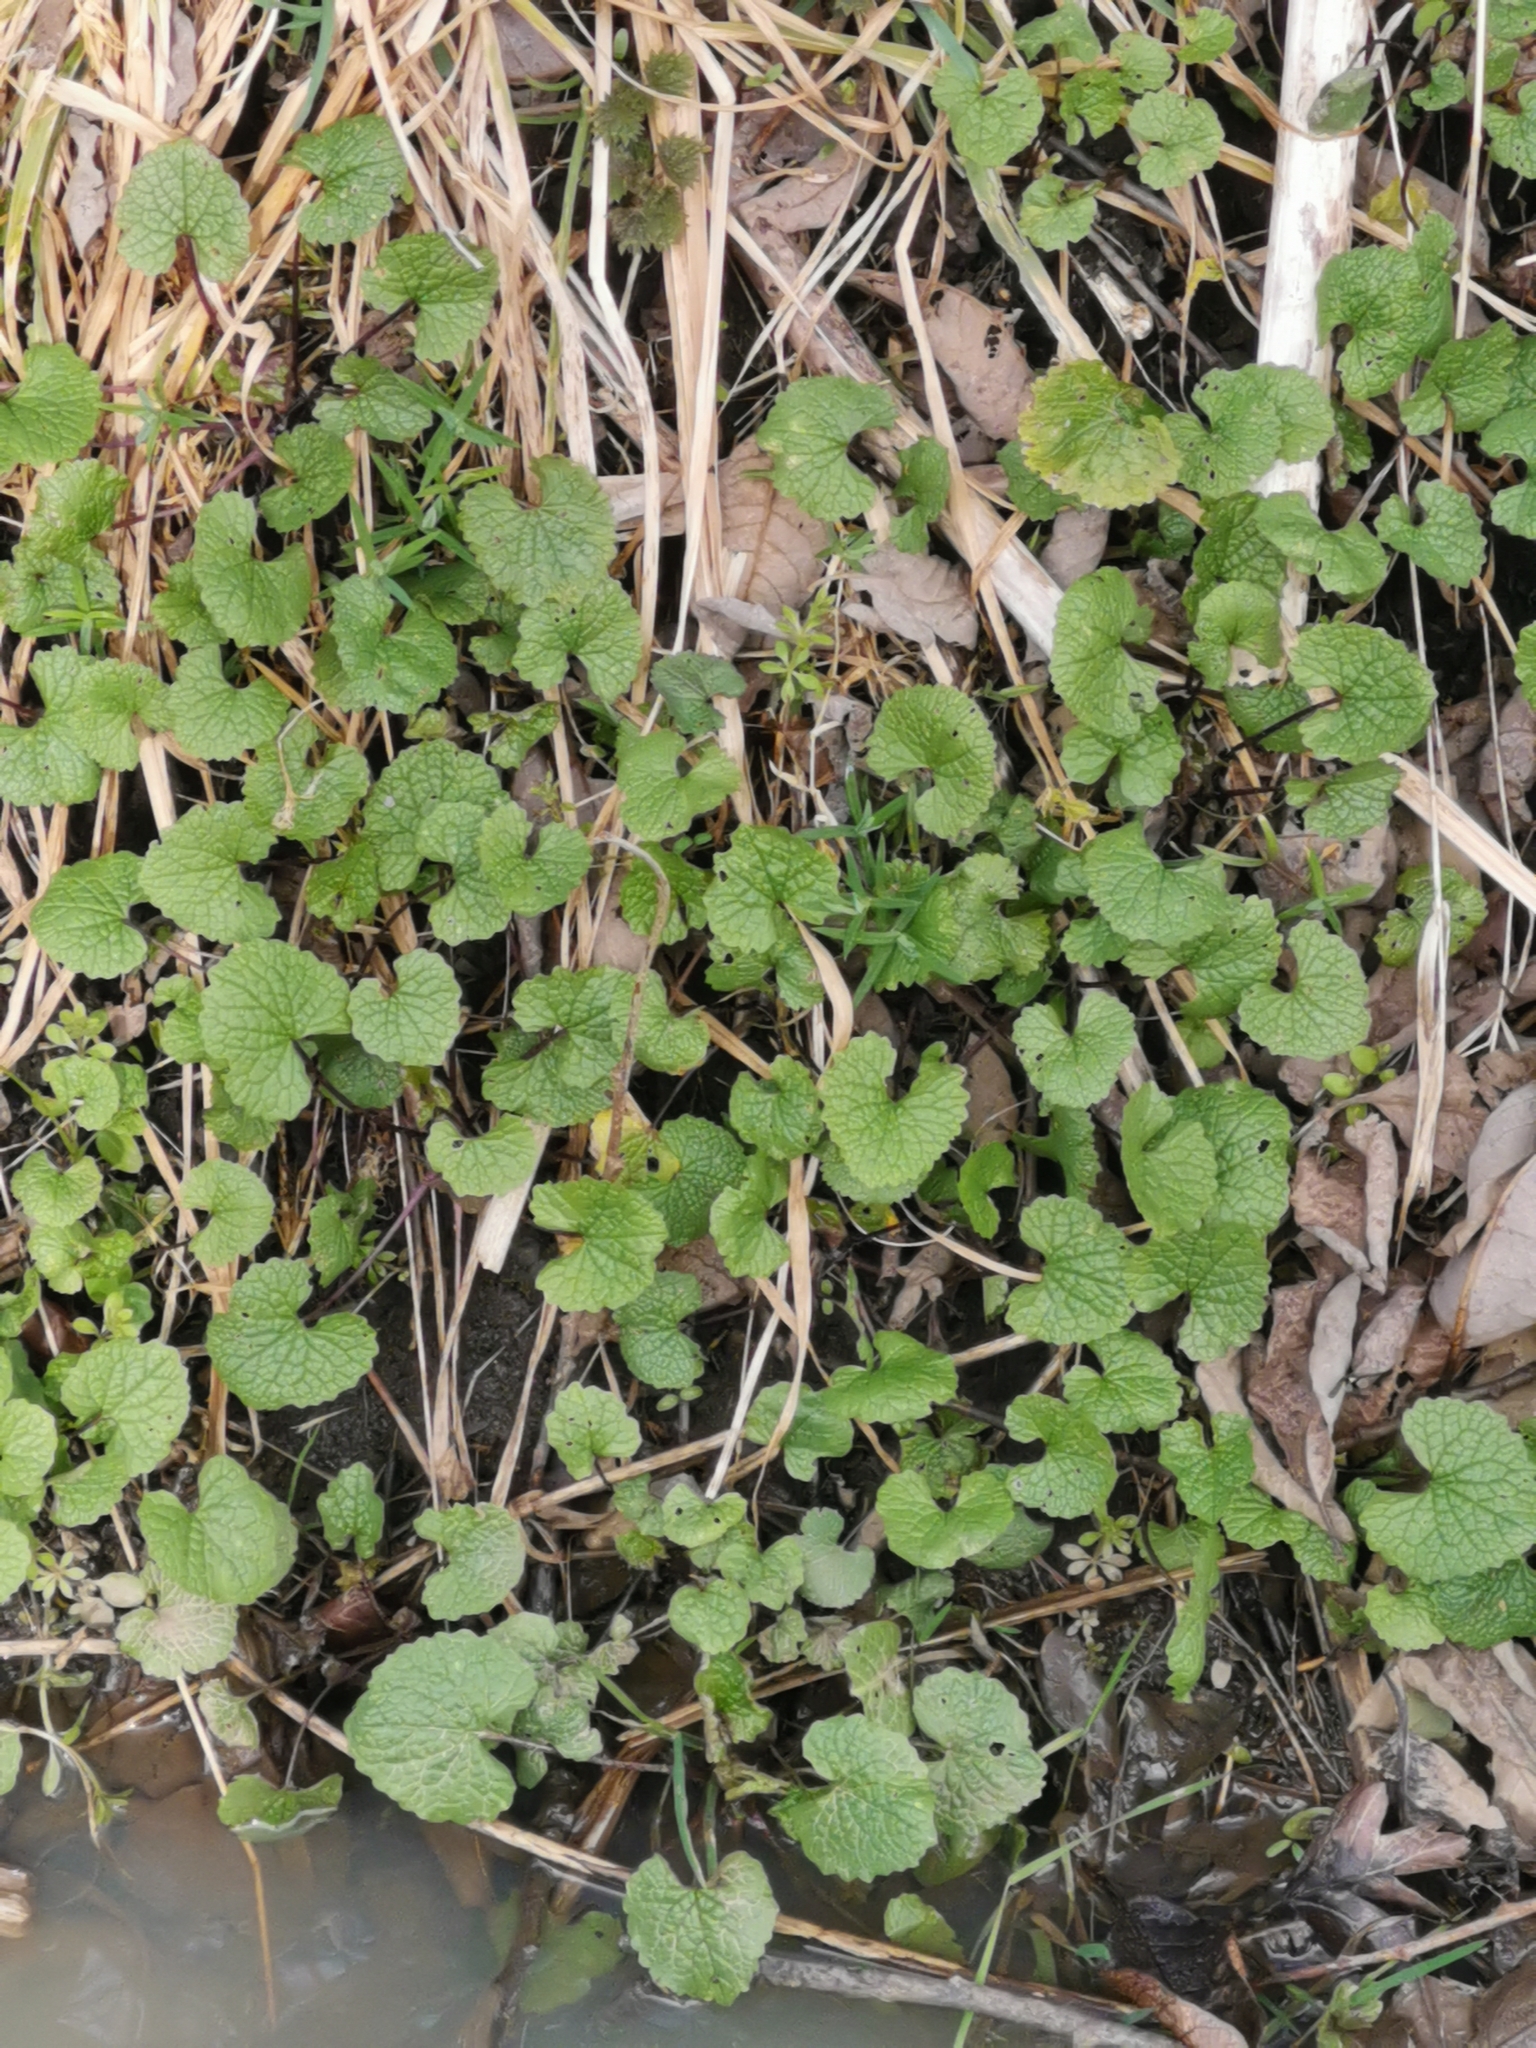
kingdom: Plantae
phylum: Tracheophyta
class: Magnoliopsida
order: Brassicales
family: Brassicaceae
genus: Alliaria
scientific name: Alliaria petiolata
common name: Garlic mustard
